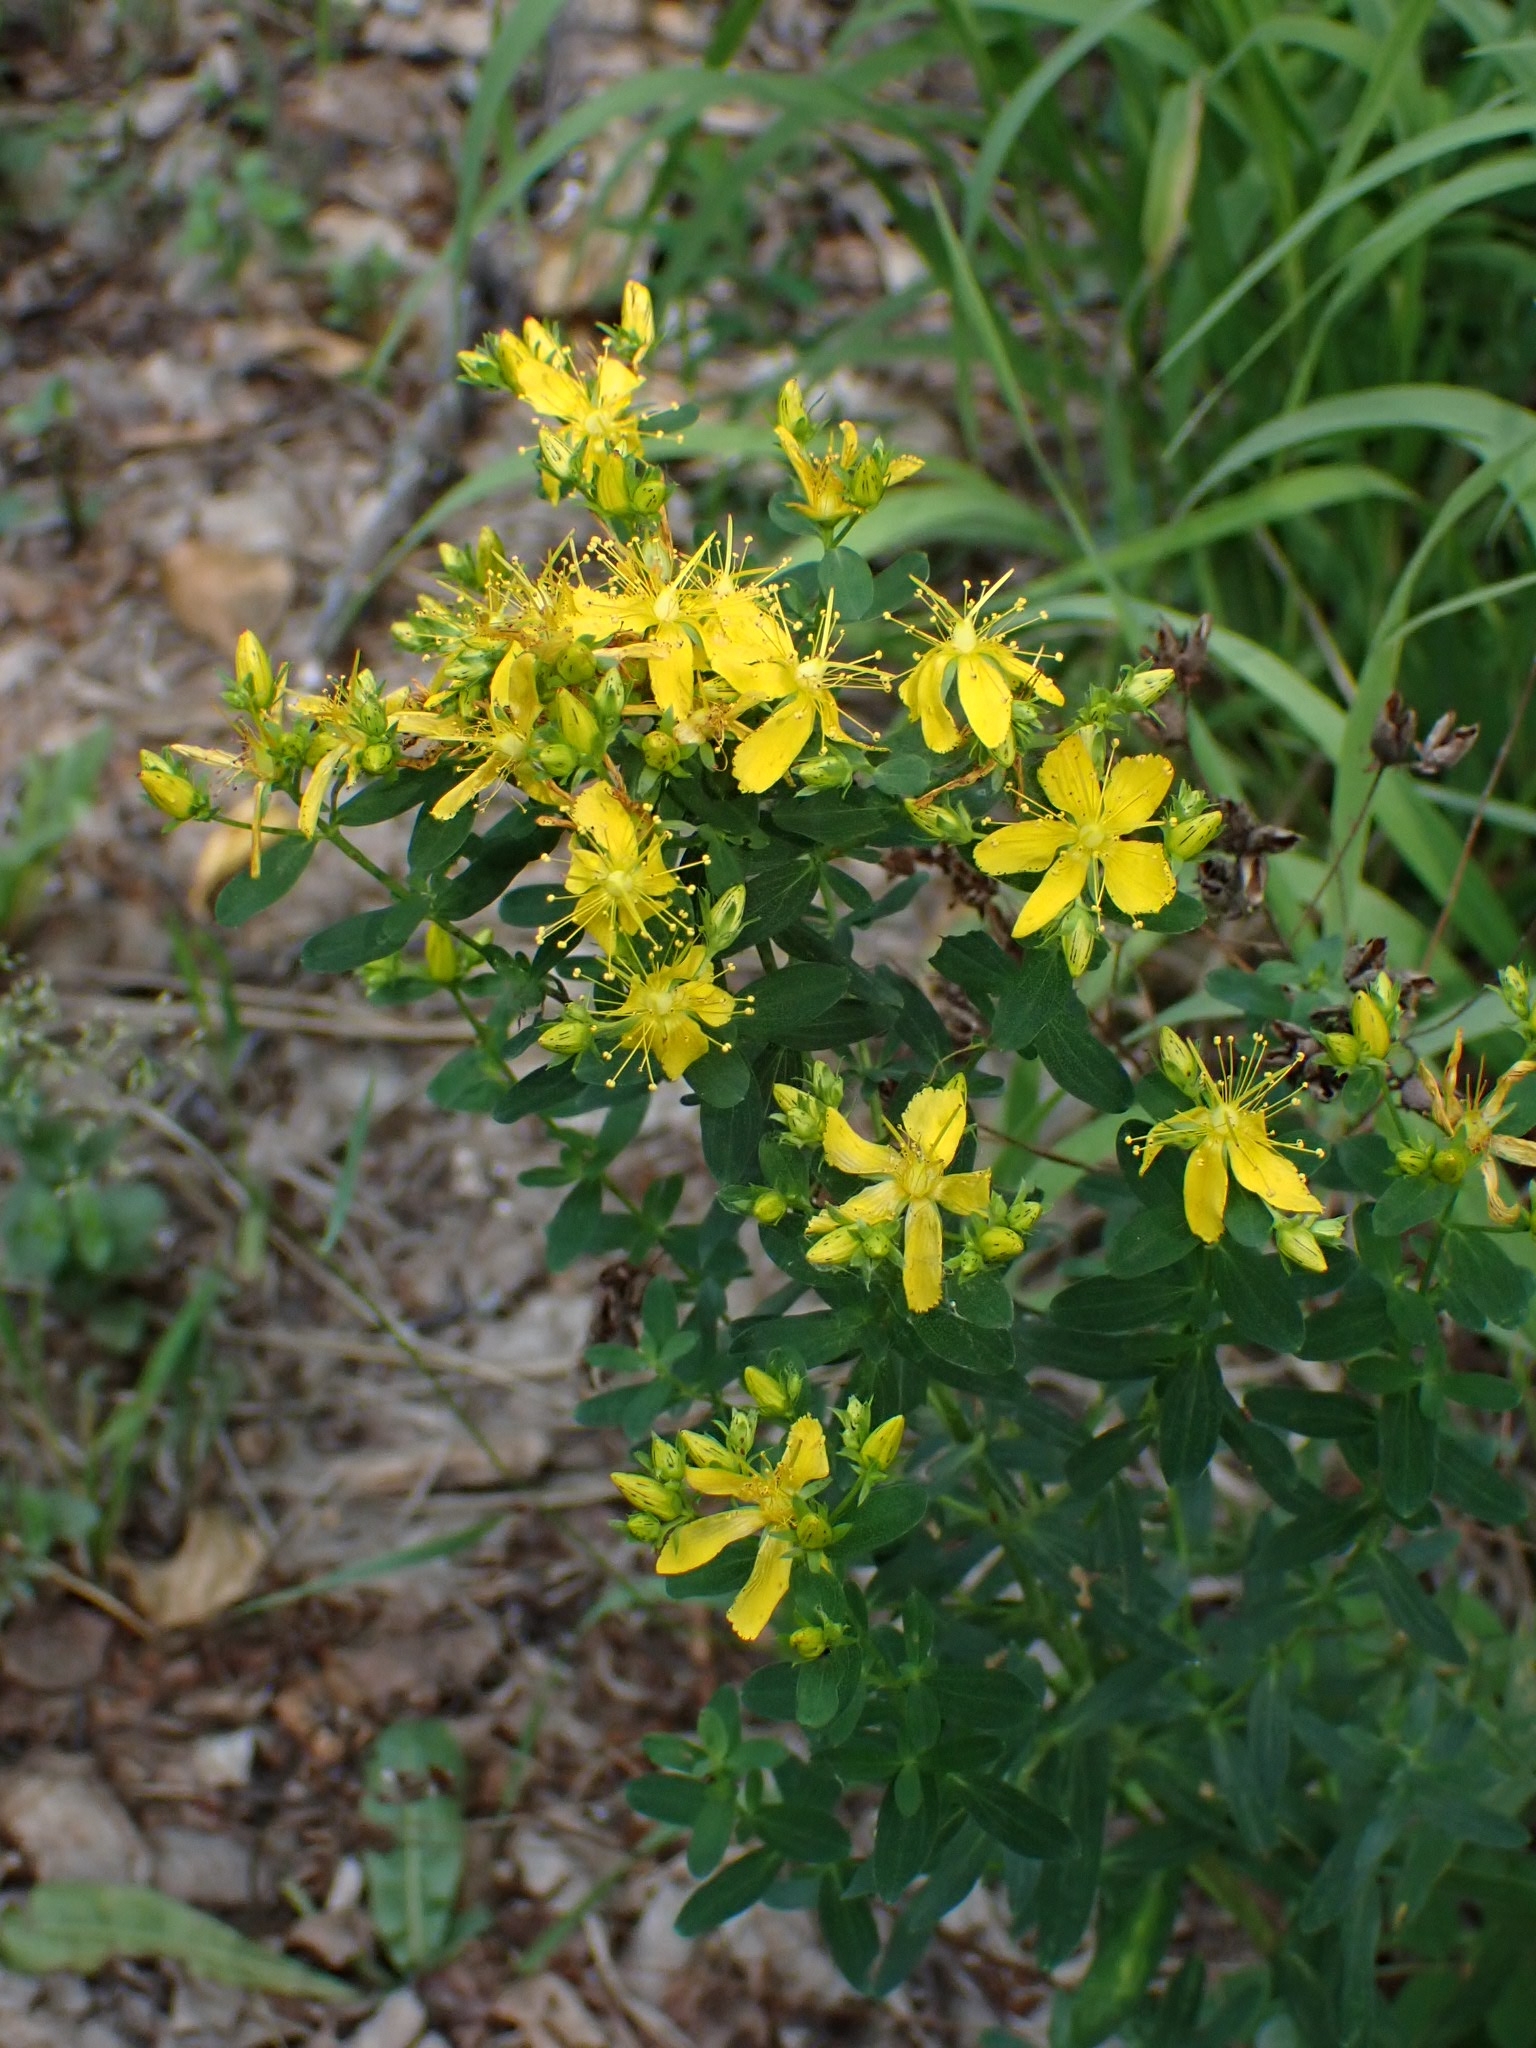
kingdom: Plantae
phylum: Tracheophyta
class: Magnoliopsida
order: Malpighiales
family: Hypericaceae
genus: Hypericum
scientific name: Hypericum perforatum
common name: Common st. johnswort
